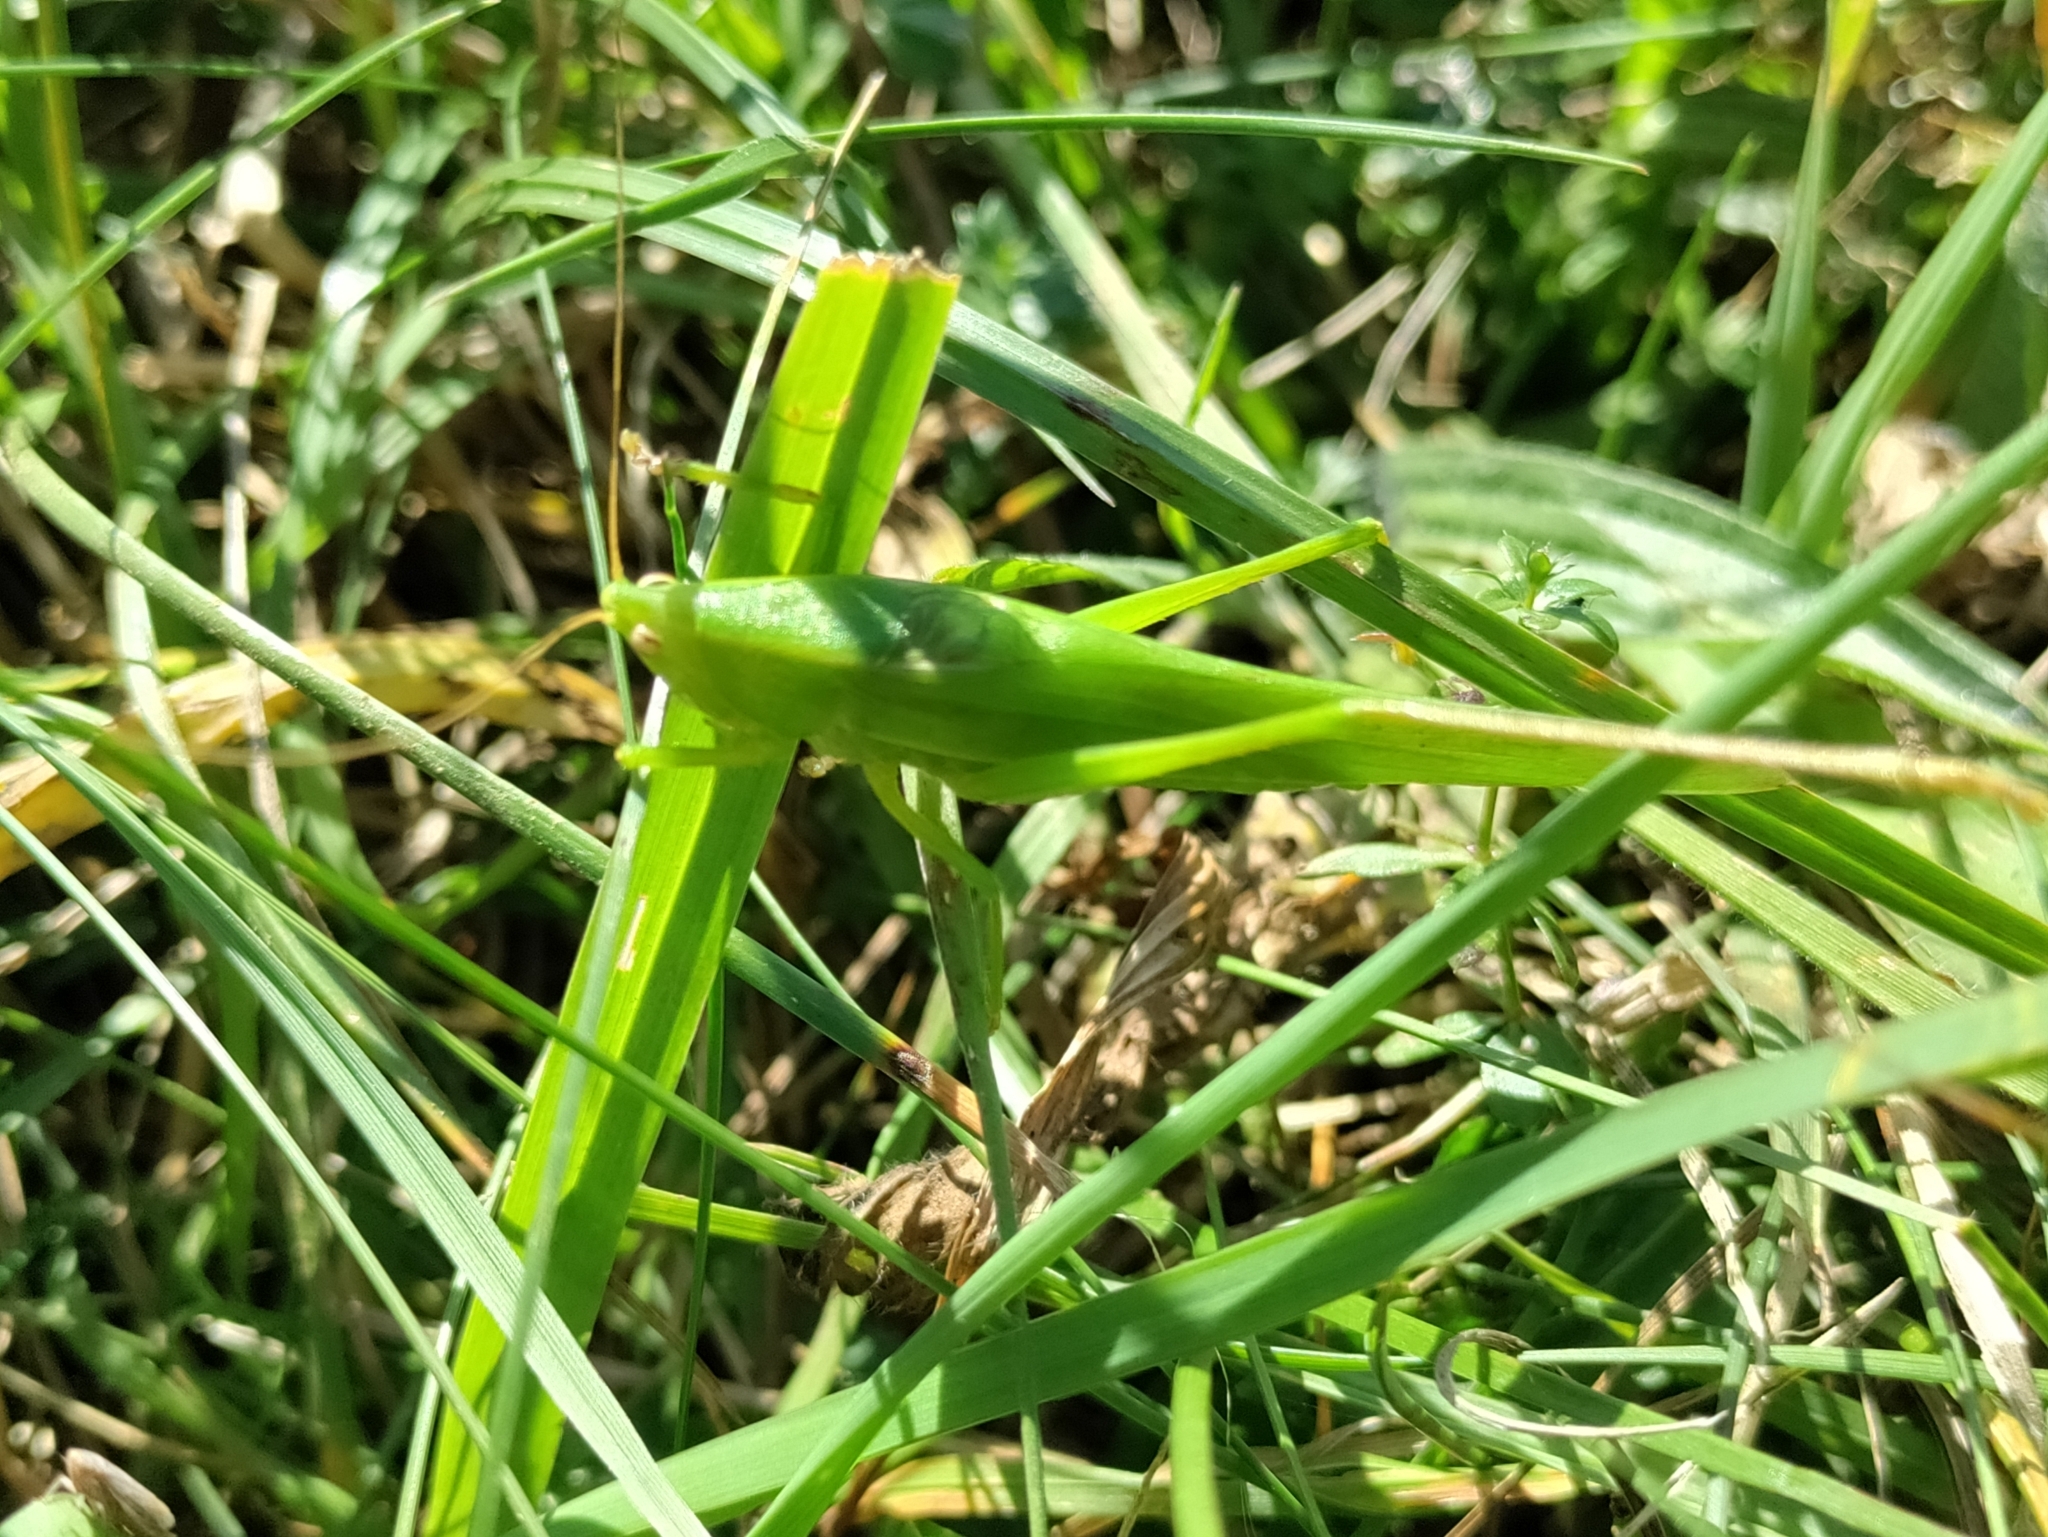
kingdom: Animalia
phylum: Arthropoda
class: Insecta
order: Orthoptera
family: Tettigoniidae
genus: Ruspolia
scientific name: Ruspolia nitidula
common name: Large conehead
